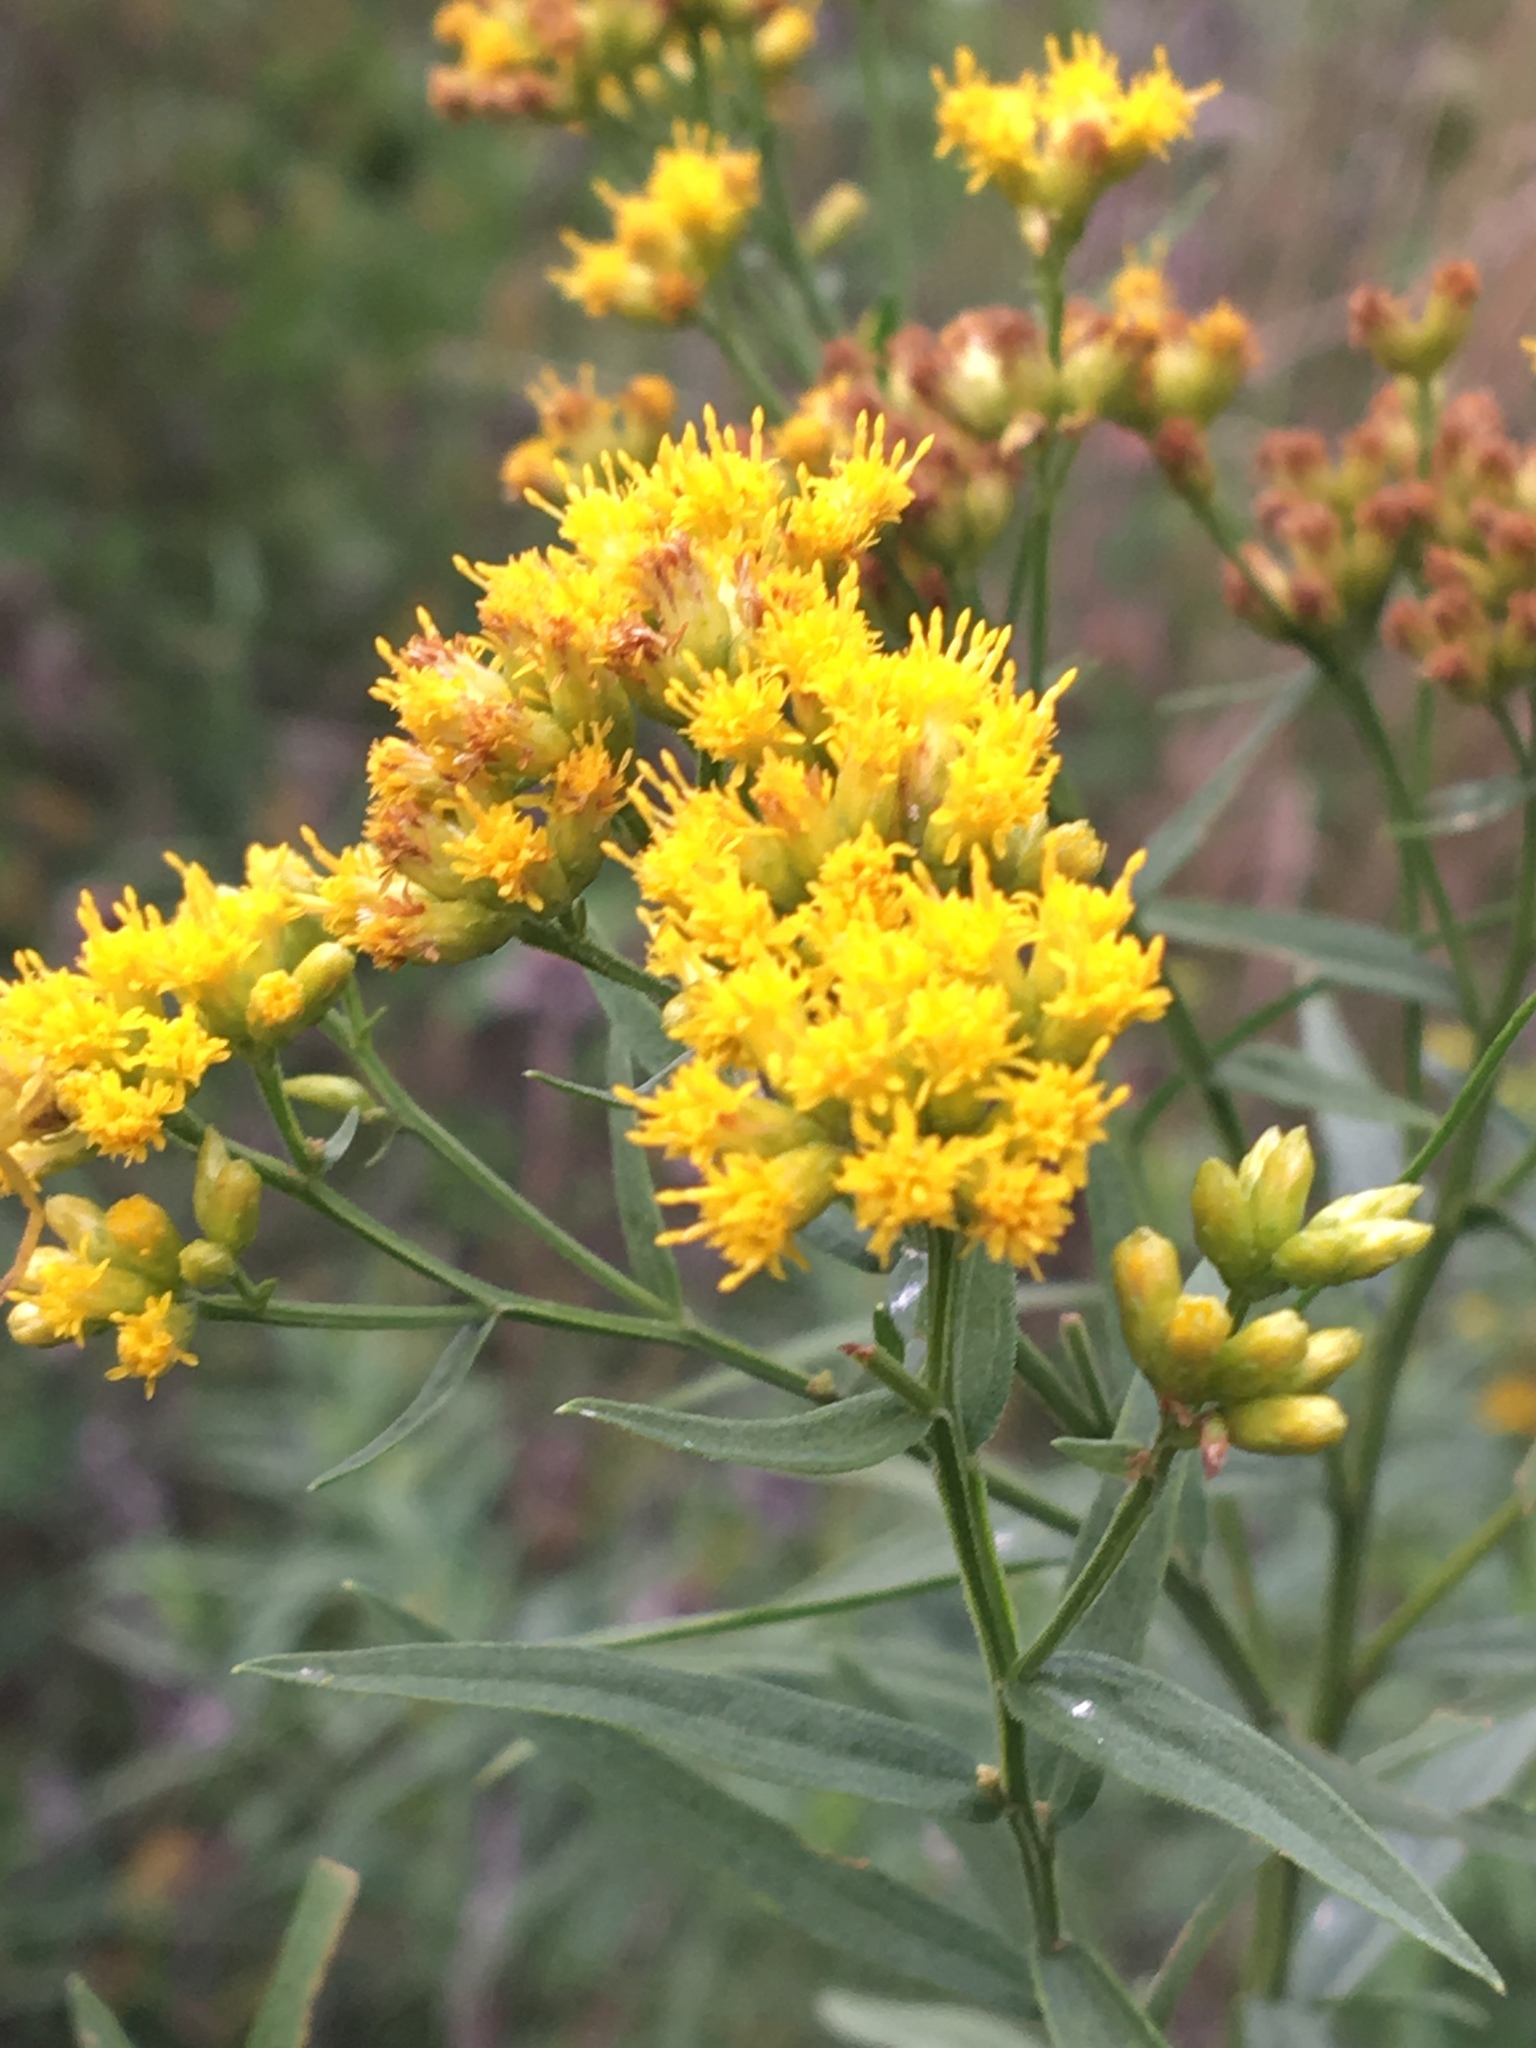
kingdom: Plantae
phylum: Tracheophyta
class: Magnoliopsida
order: Asterales
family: Asteraceae
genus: Euthamia
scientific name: Euthamia graminifolia
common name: Common goldentop
